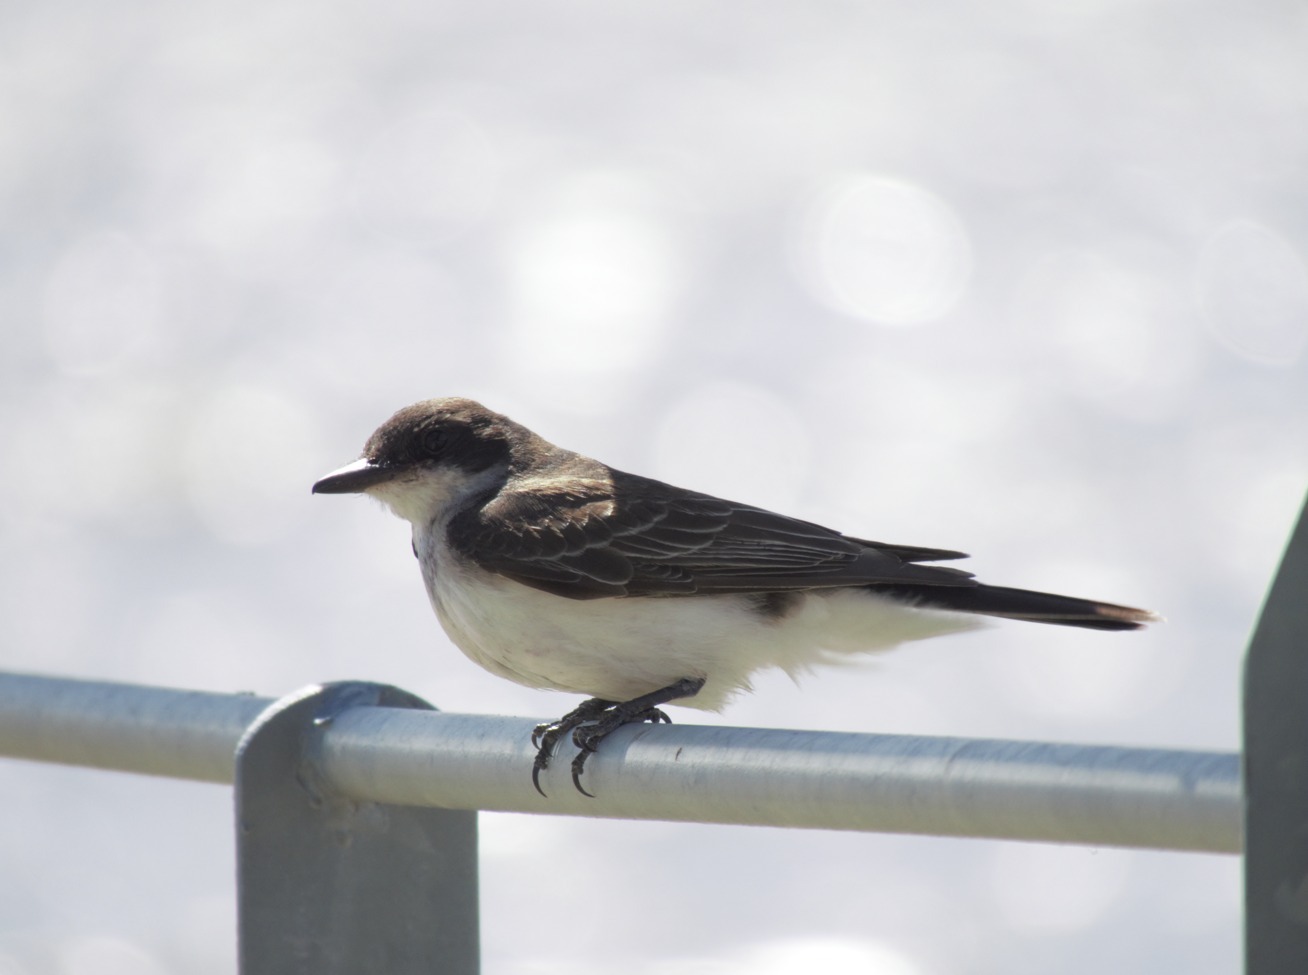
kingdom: Animalia
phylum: Chordata
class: Aves
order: Passeriformes
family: Tyrannidae
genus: Tyrannus
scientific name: Tyrannus tyrannus
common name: Eastern kingbird
